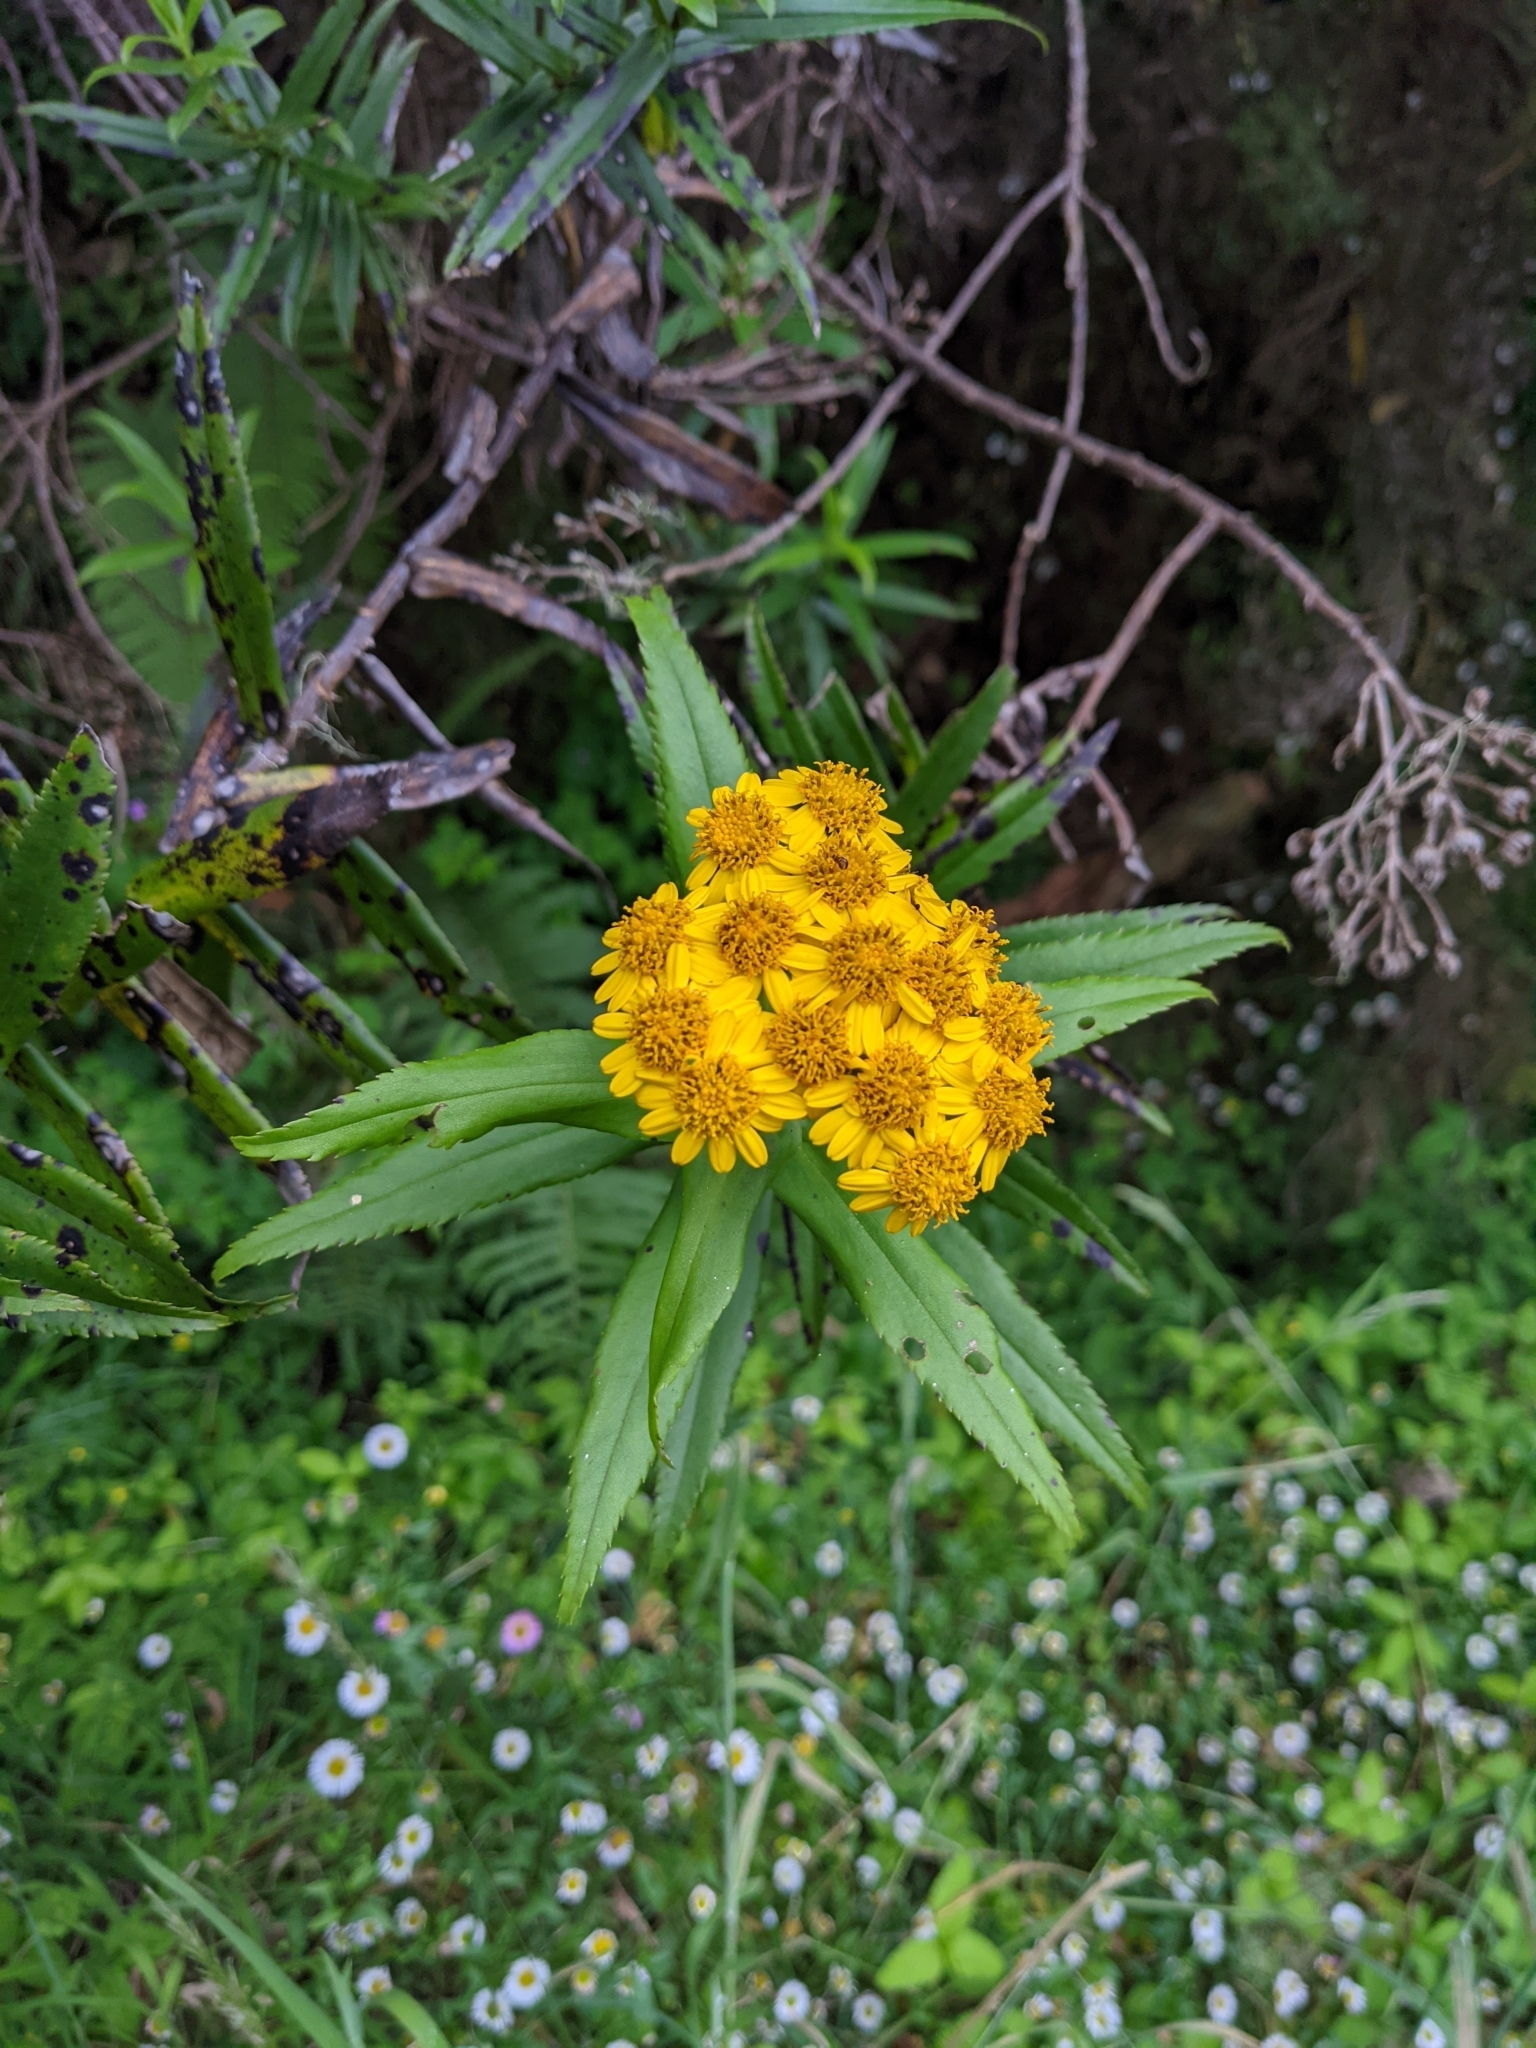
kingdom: Plantae
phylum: Tracheophyta
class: Magnoliopsida
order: Asterales
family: Asteraceae
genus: Faujasia
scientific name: Faujasia salicifolia
